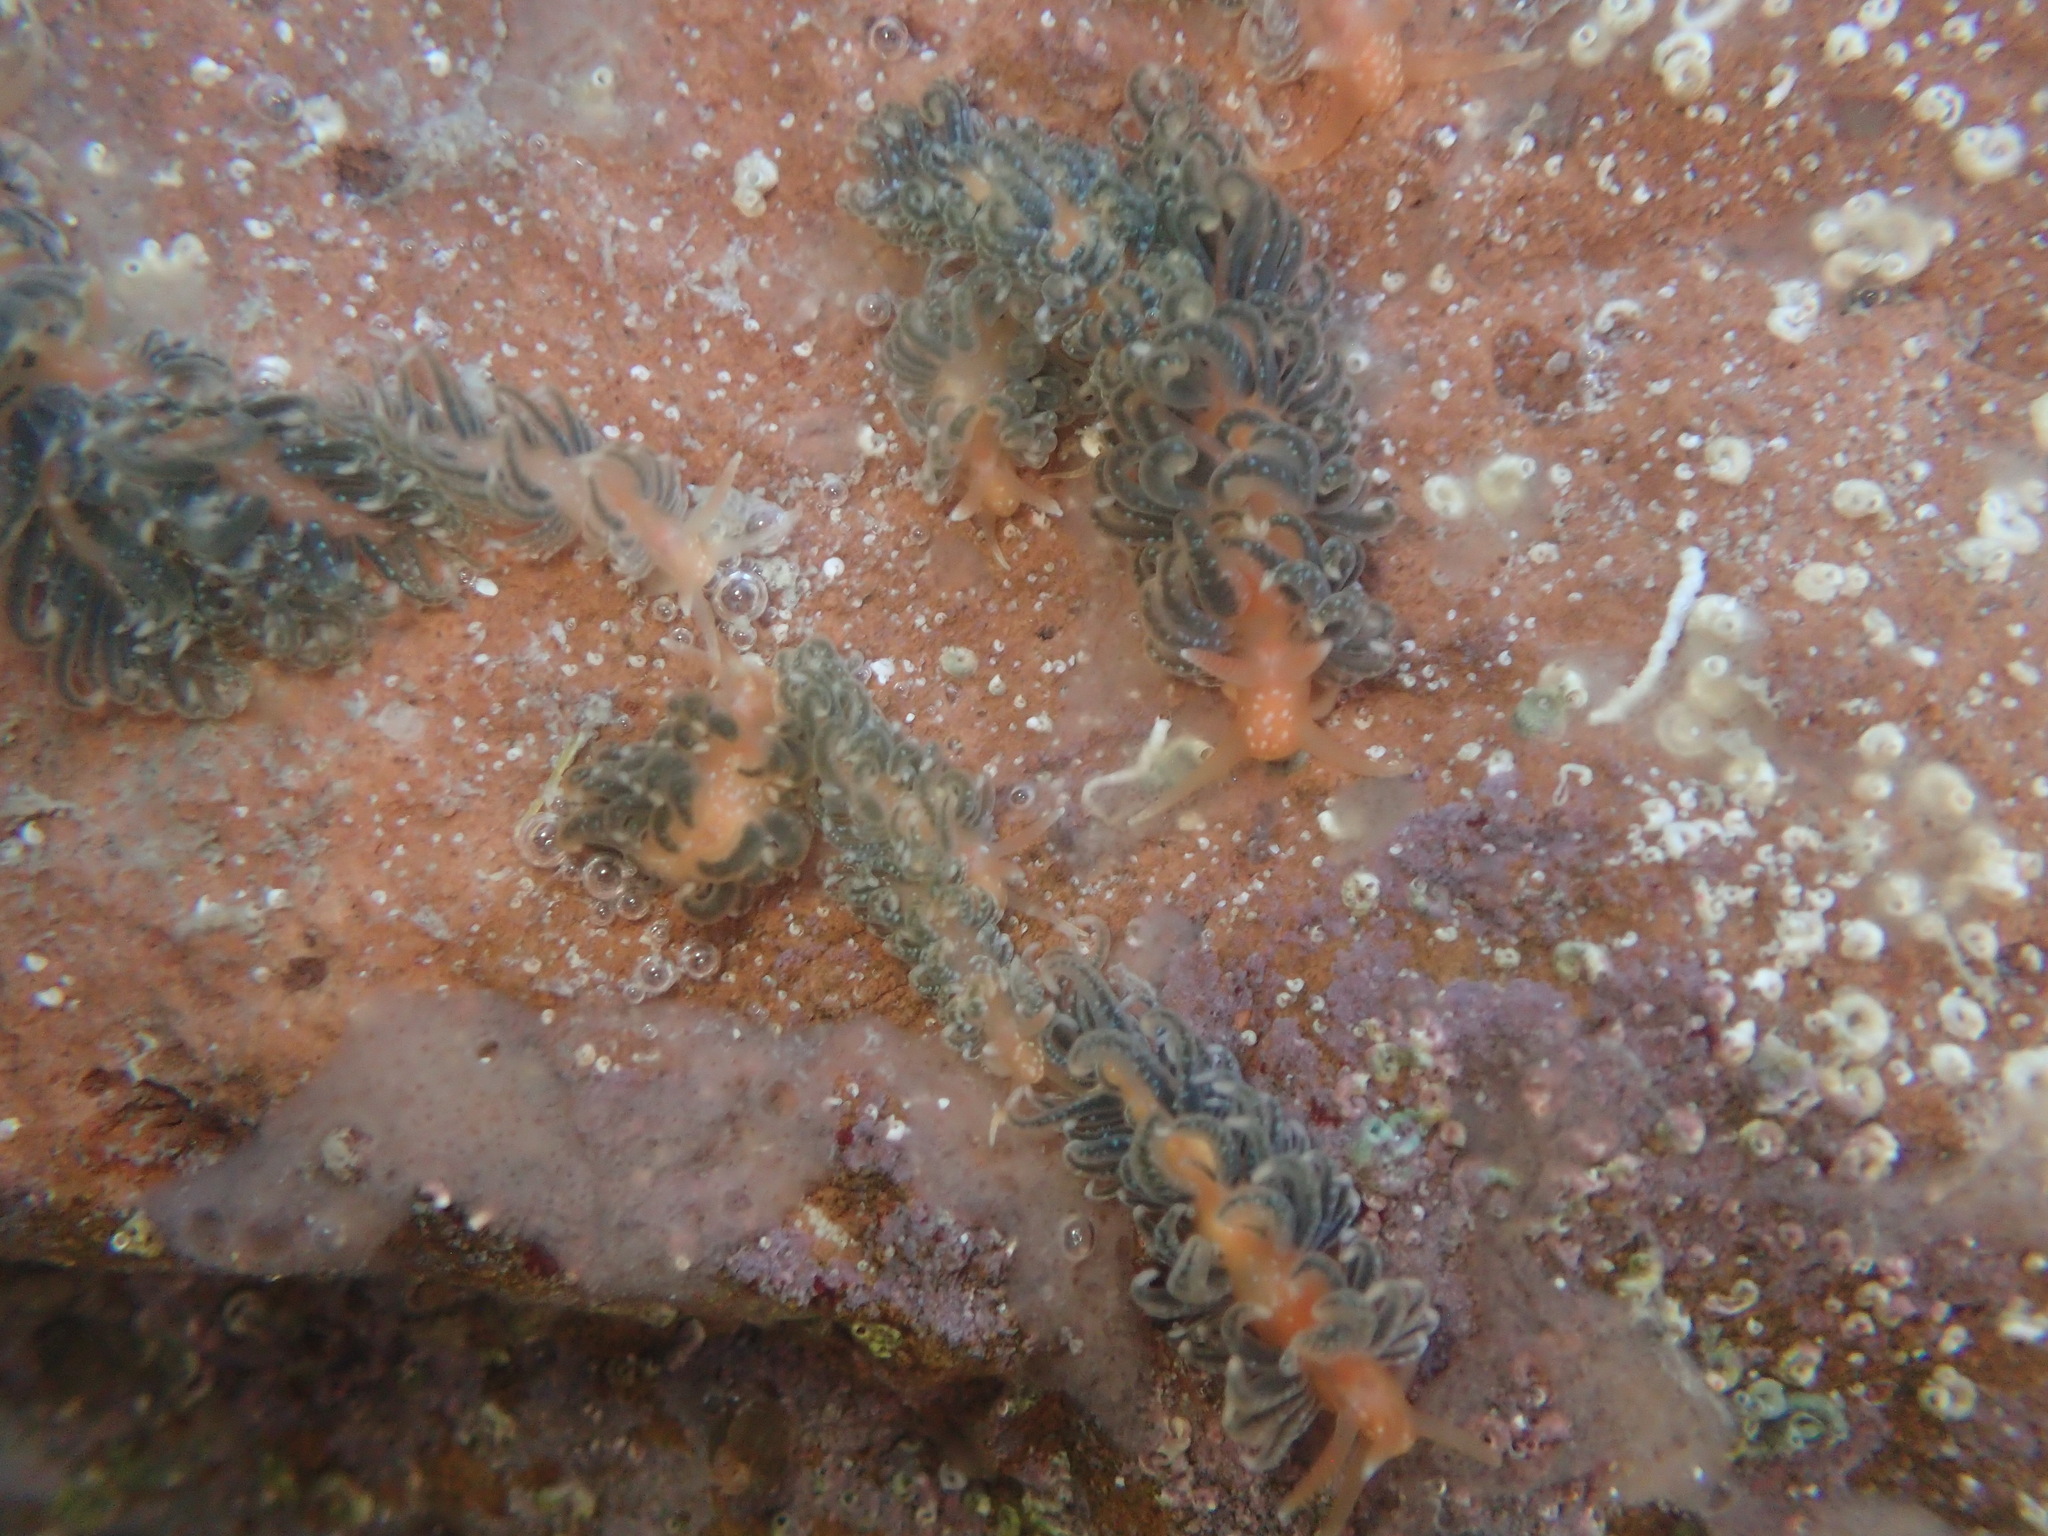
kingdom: Animalia
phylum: Mollusca
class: Gastropoda
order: Nudibranchia
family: Aeolidiidae
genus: Spurilla
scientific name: Spurilla braziliana
